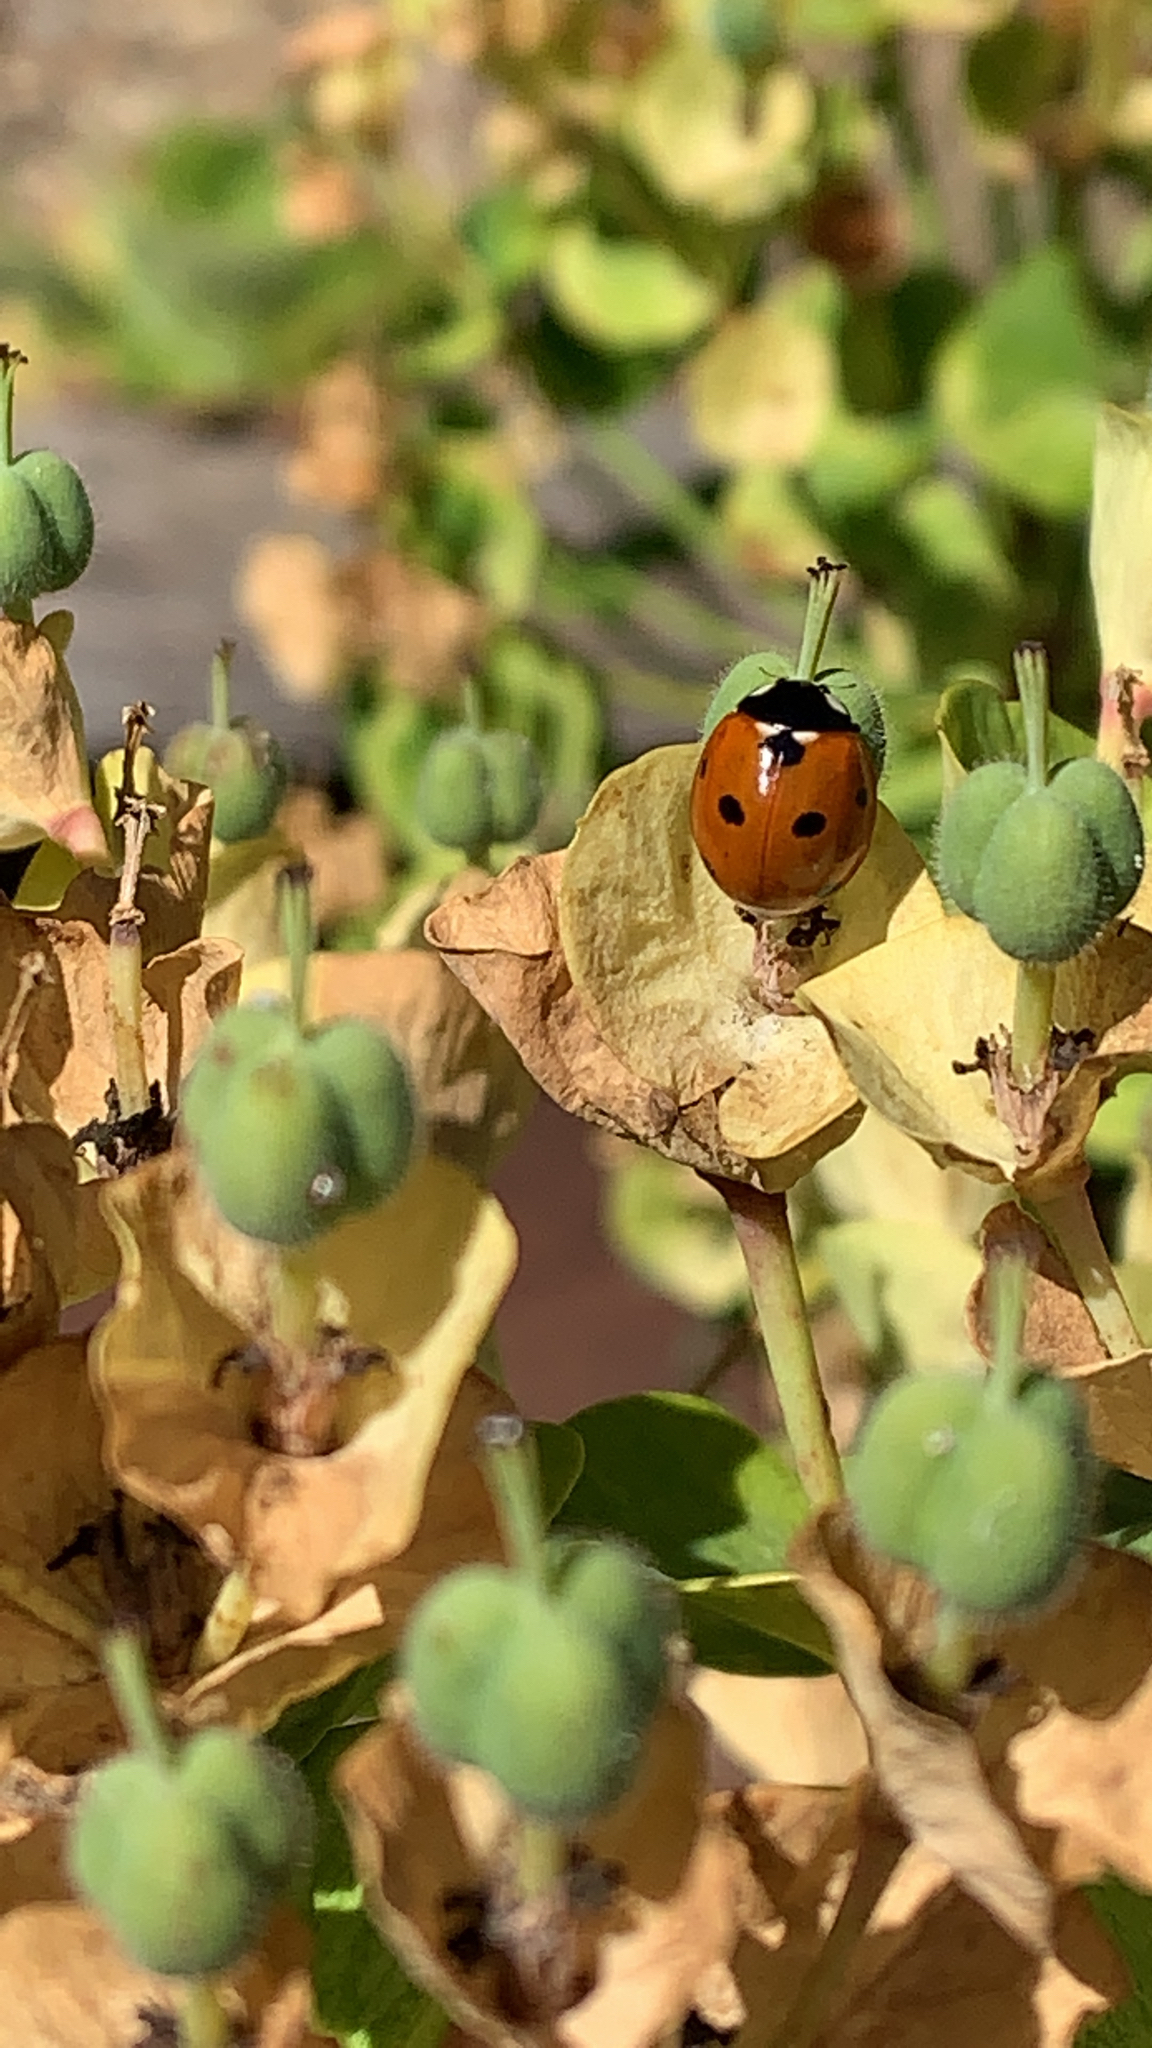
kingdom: Animalia
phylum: Arthropoda
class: Insecta
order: Coleoptera
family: Coccinellidae
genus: Coccinella
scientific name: Coccinella septempunctata
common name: Sevenspotted lady beetle
